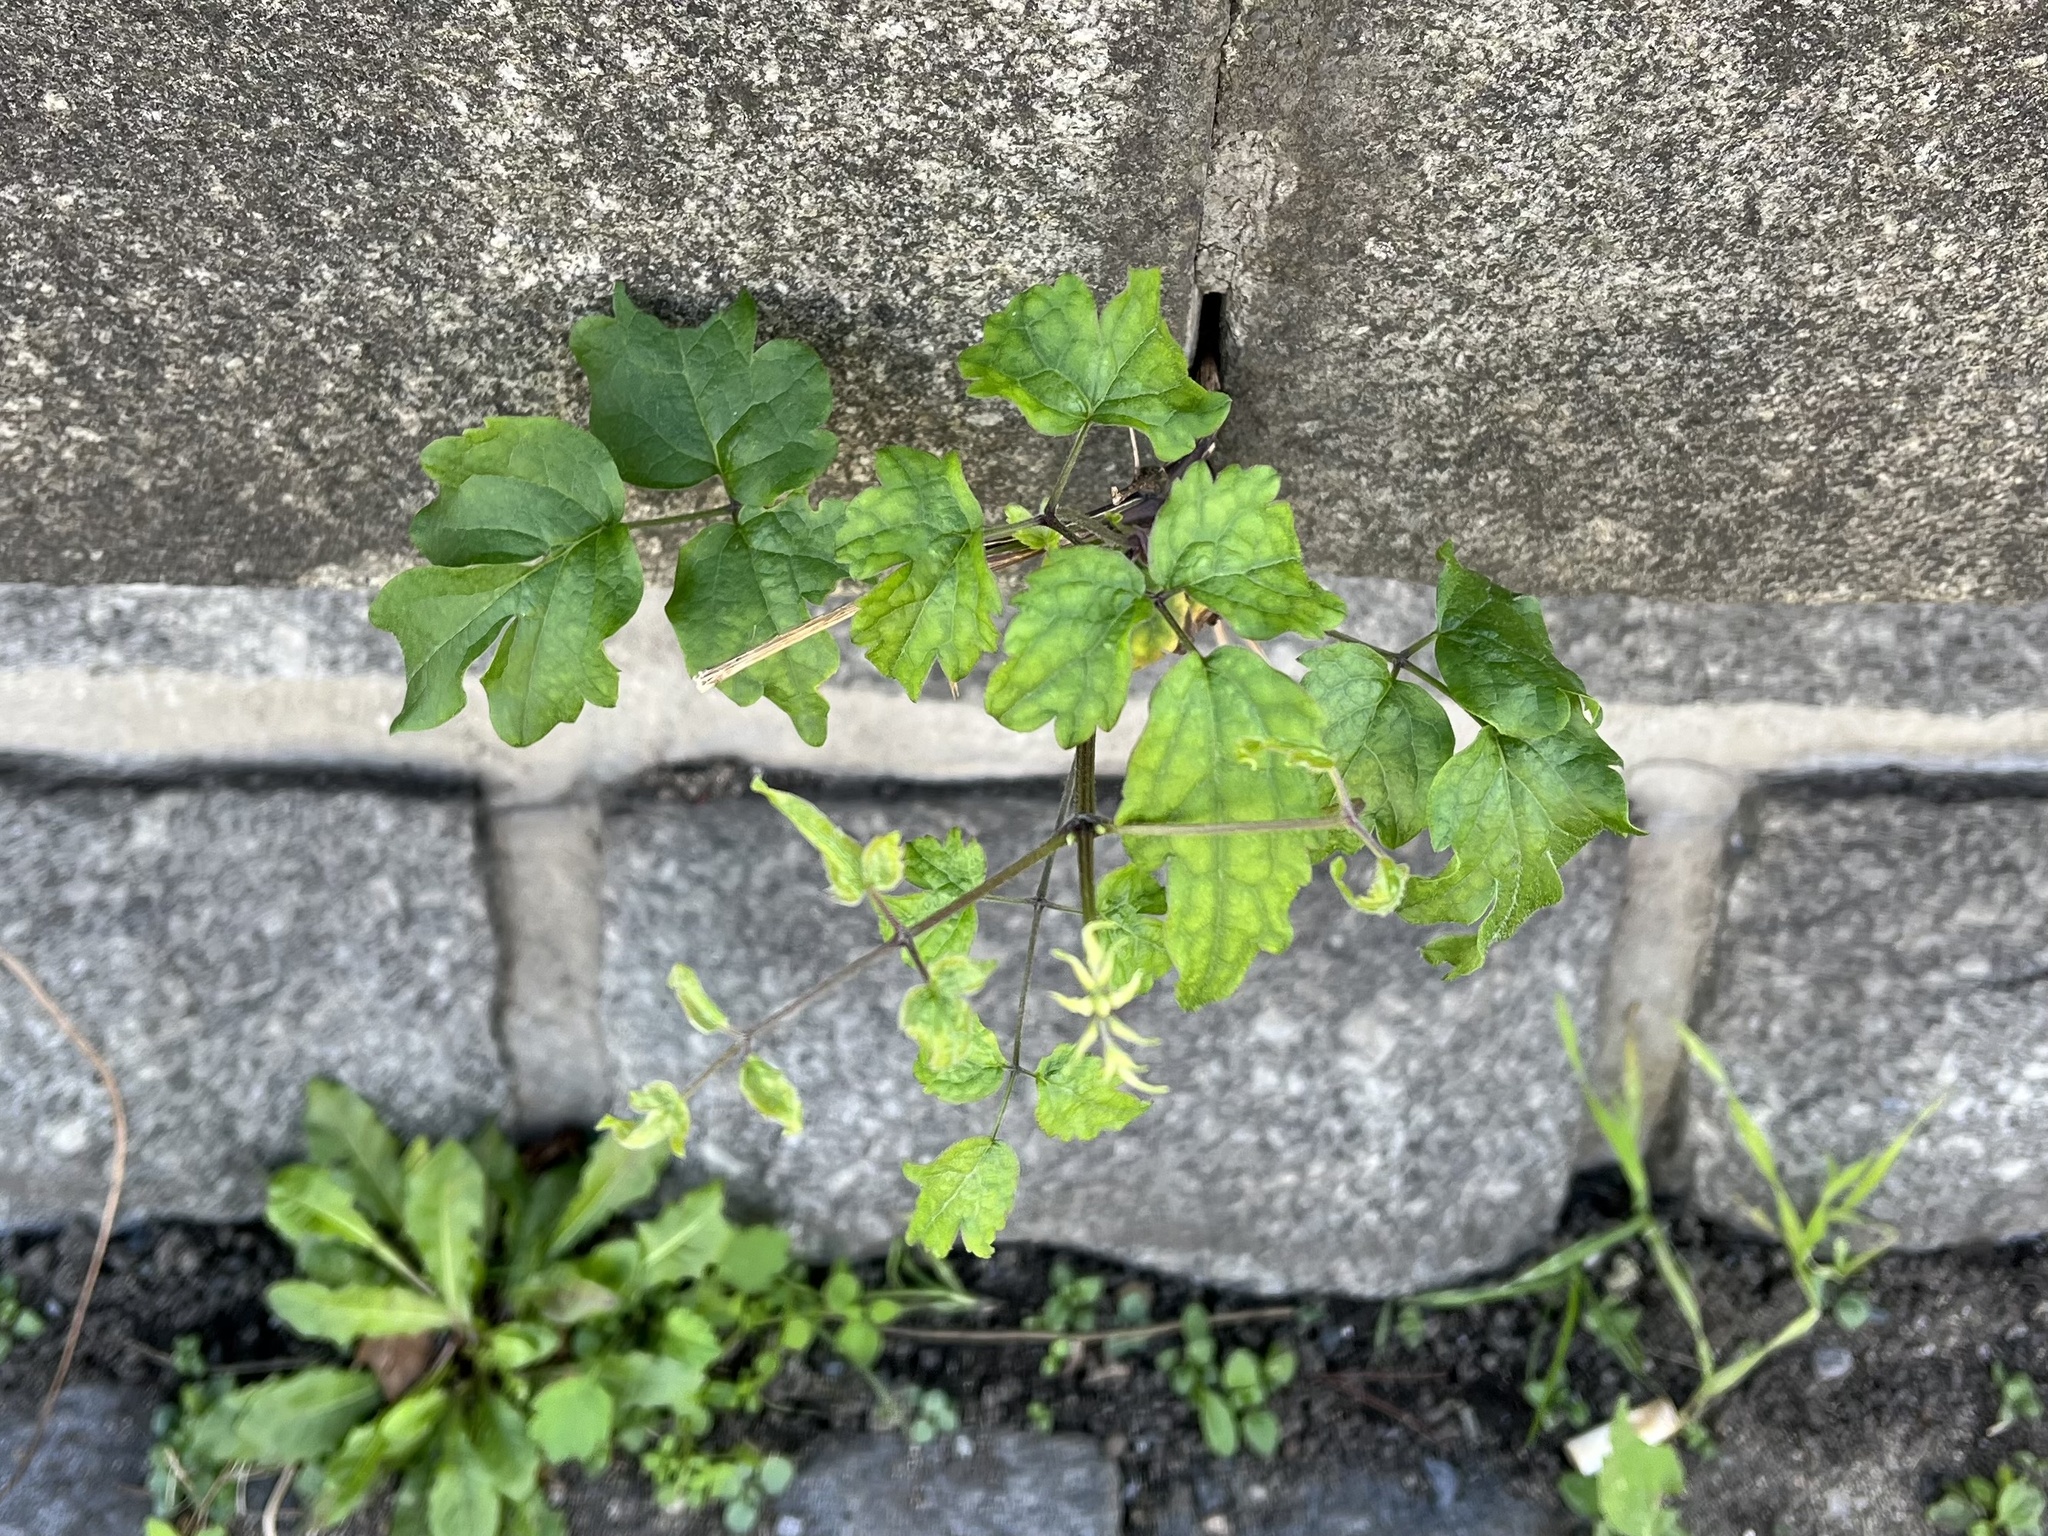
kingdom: Plantae
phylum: Tracheophyta
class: Magnoliopsida
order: Ranunculales
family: Ranunculaceae
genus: Clematis
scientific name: Clematis vitalba
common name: Evergreen clematis
